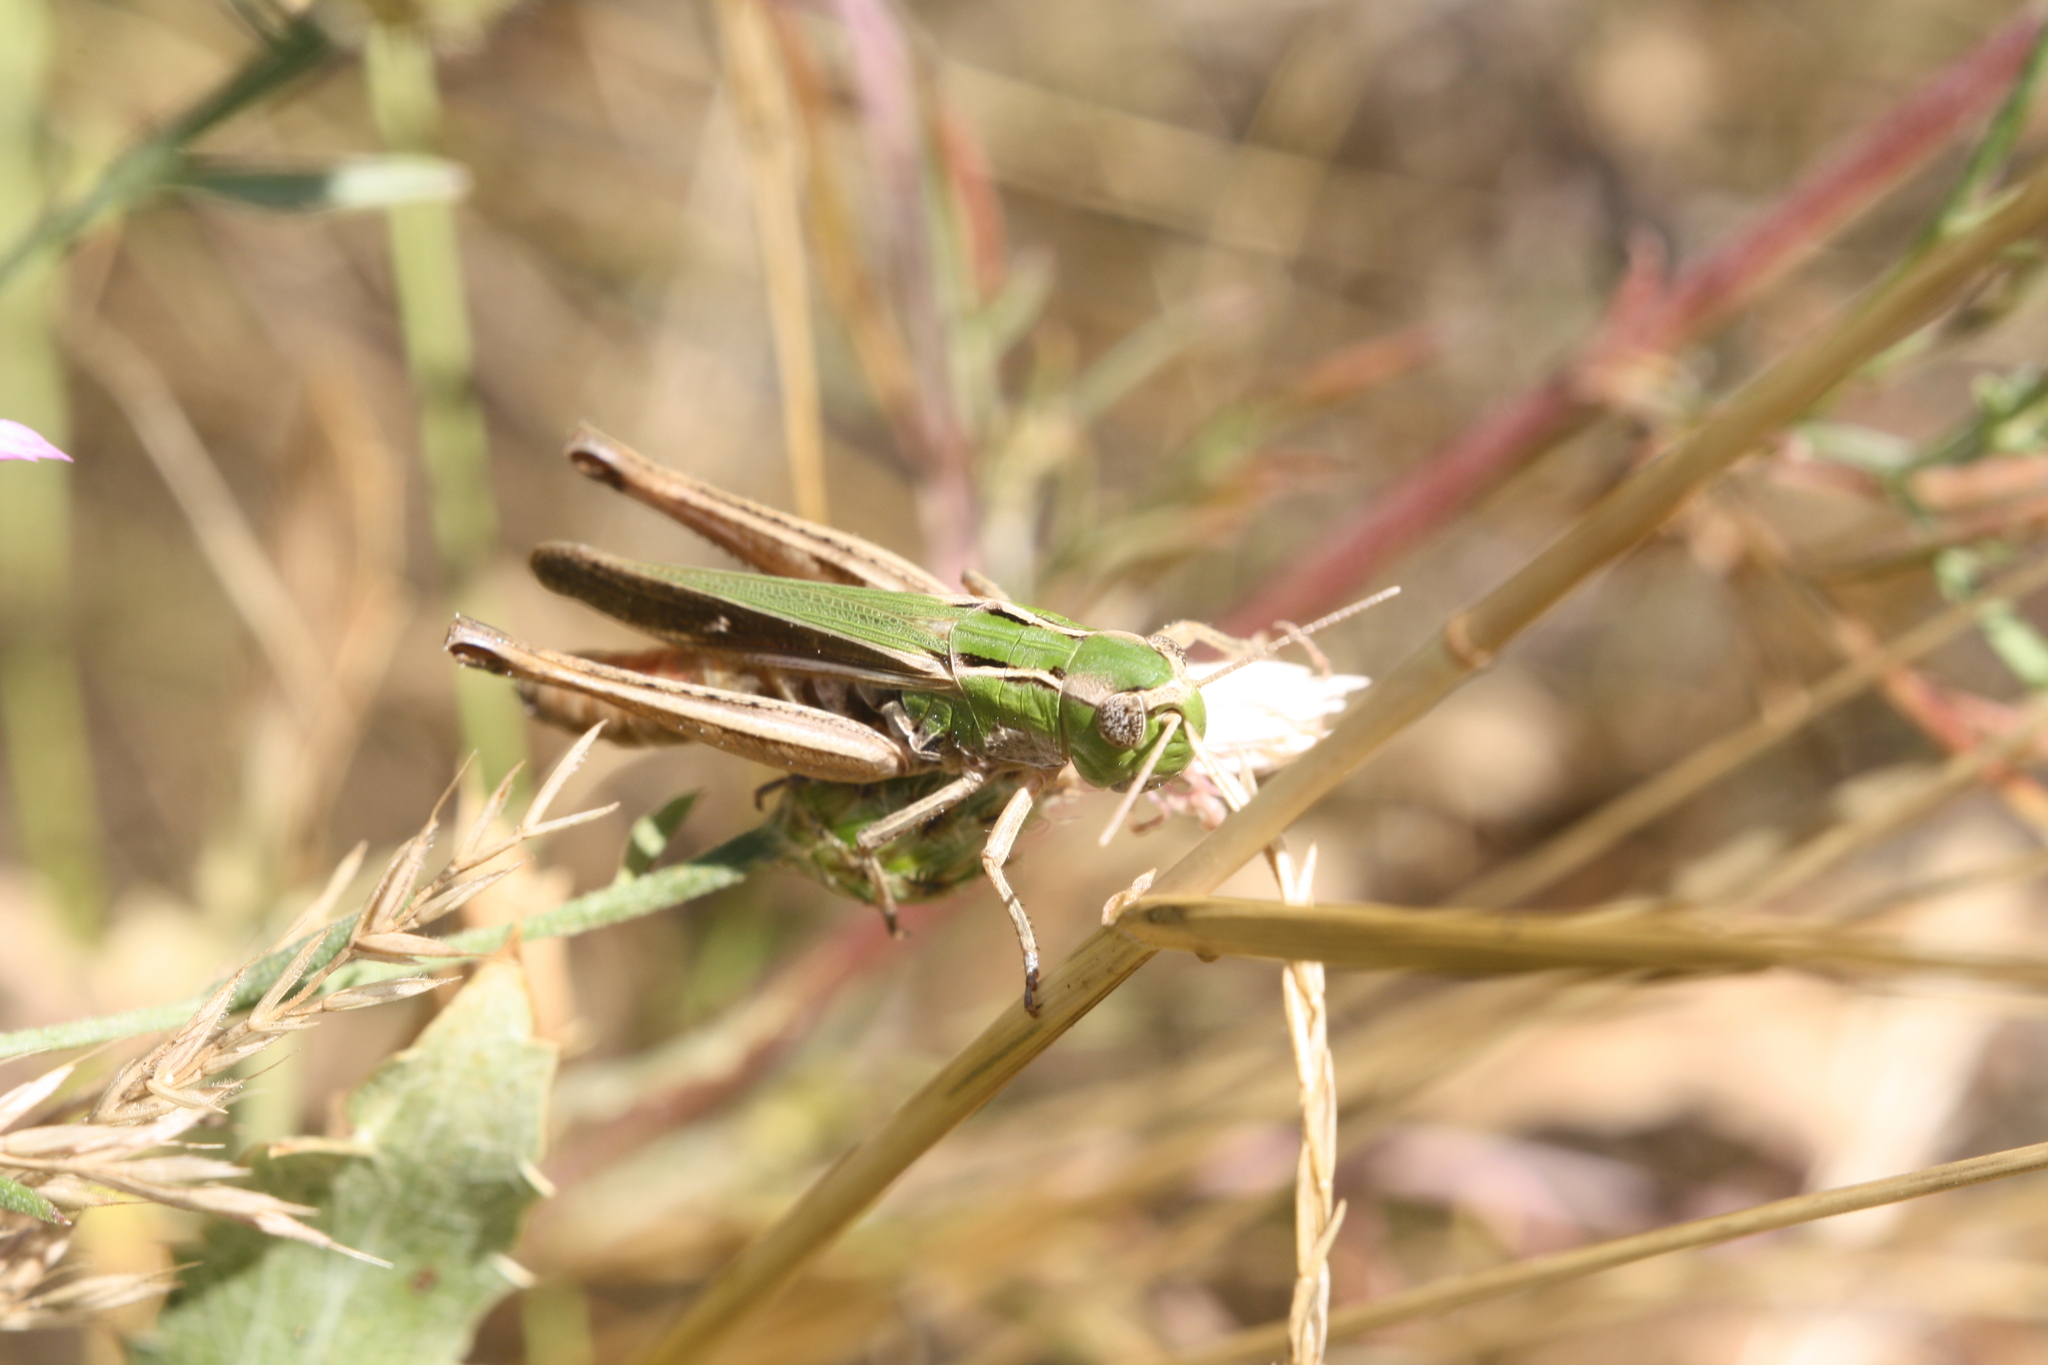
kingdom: Animalia
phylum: Arthropoda
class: Insecta
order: Orthoptera
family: Acrididae
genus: Stenobothrus
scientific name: Stenobothrus lineatus
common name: Stripe-winged grasshopper
